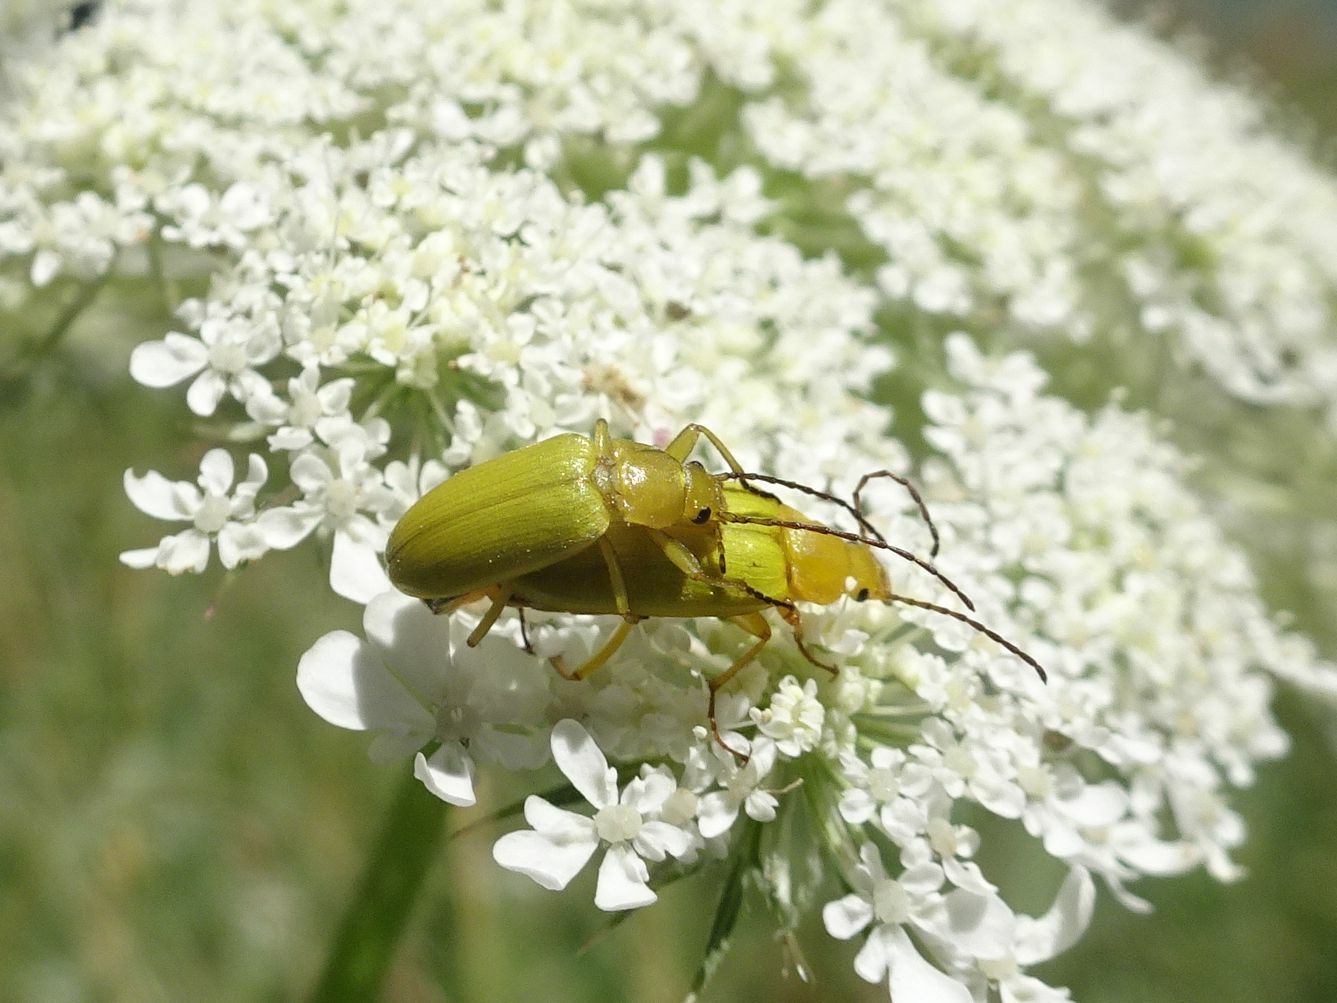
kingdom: Animalia
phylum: Arthropoda
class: Insecta
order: Coleoptera
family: Tenebrionidae
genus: Cteniopus
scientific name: Cteniopus sulphureus
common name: Sulphur beetle
